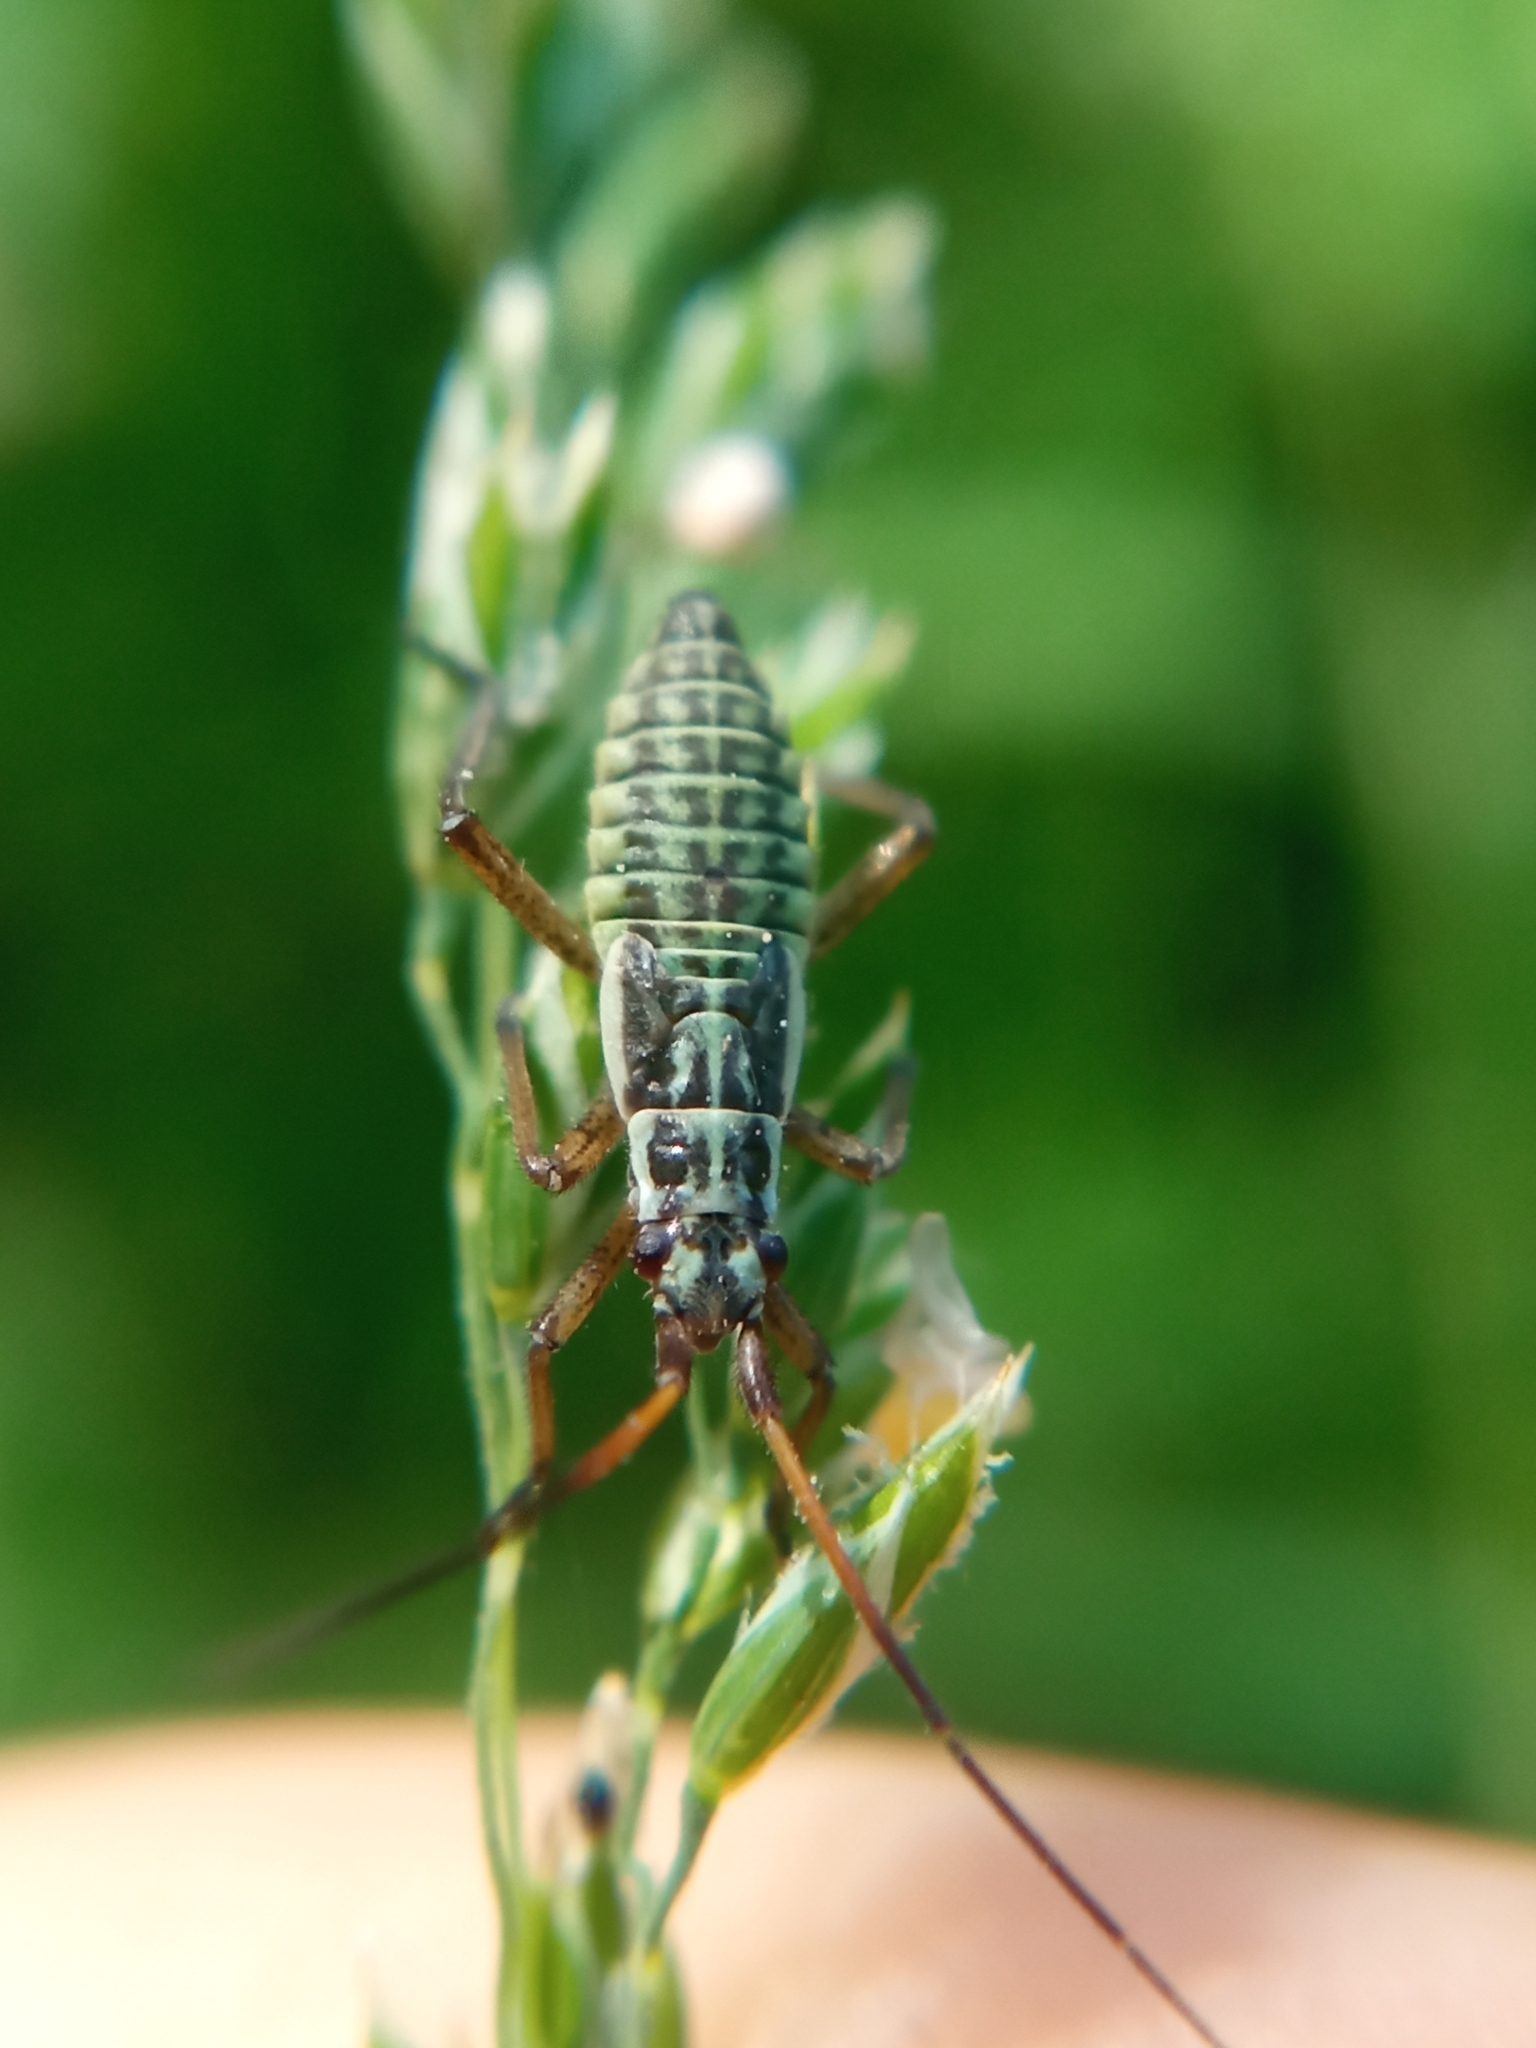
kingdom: Animalia
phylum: Arthropoda
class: Insecta
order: Hemiptera
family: Miridae
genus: Leptopterna
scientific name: Leptopterna dolabrata
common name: Meadow plant bug
